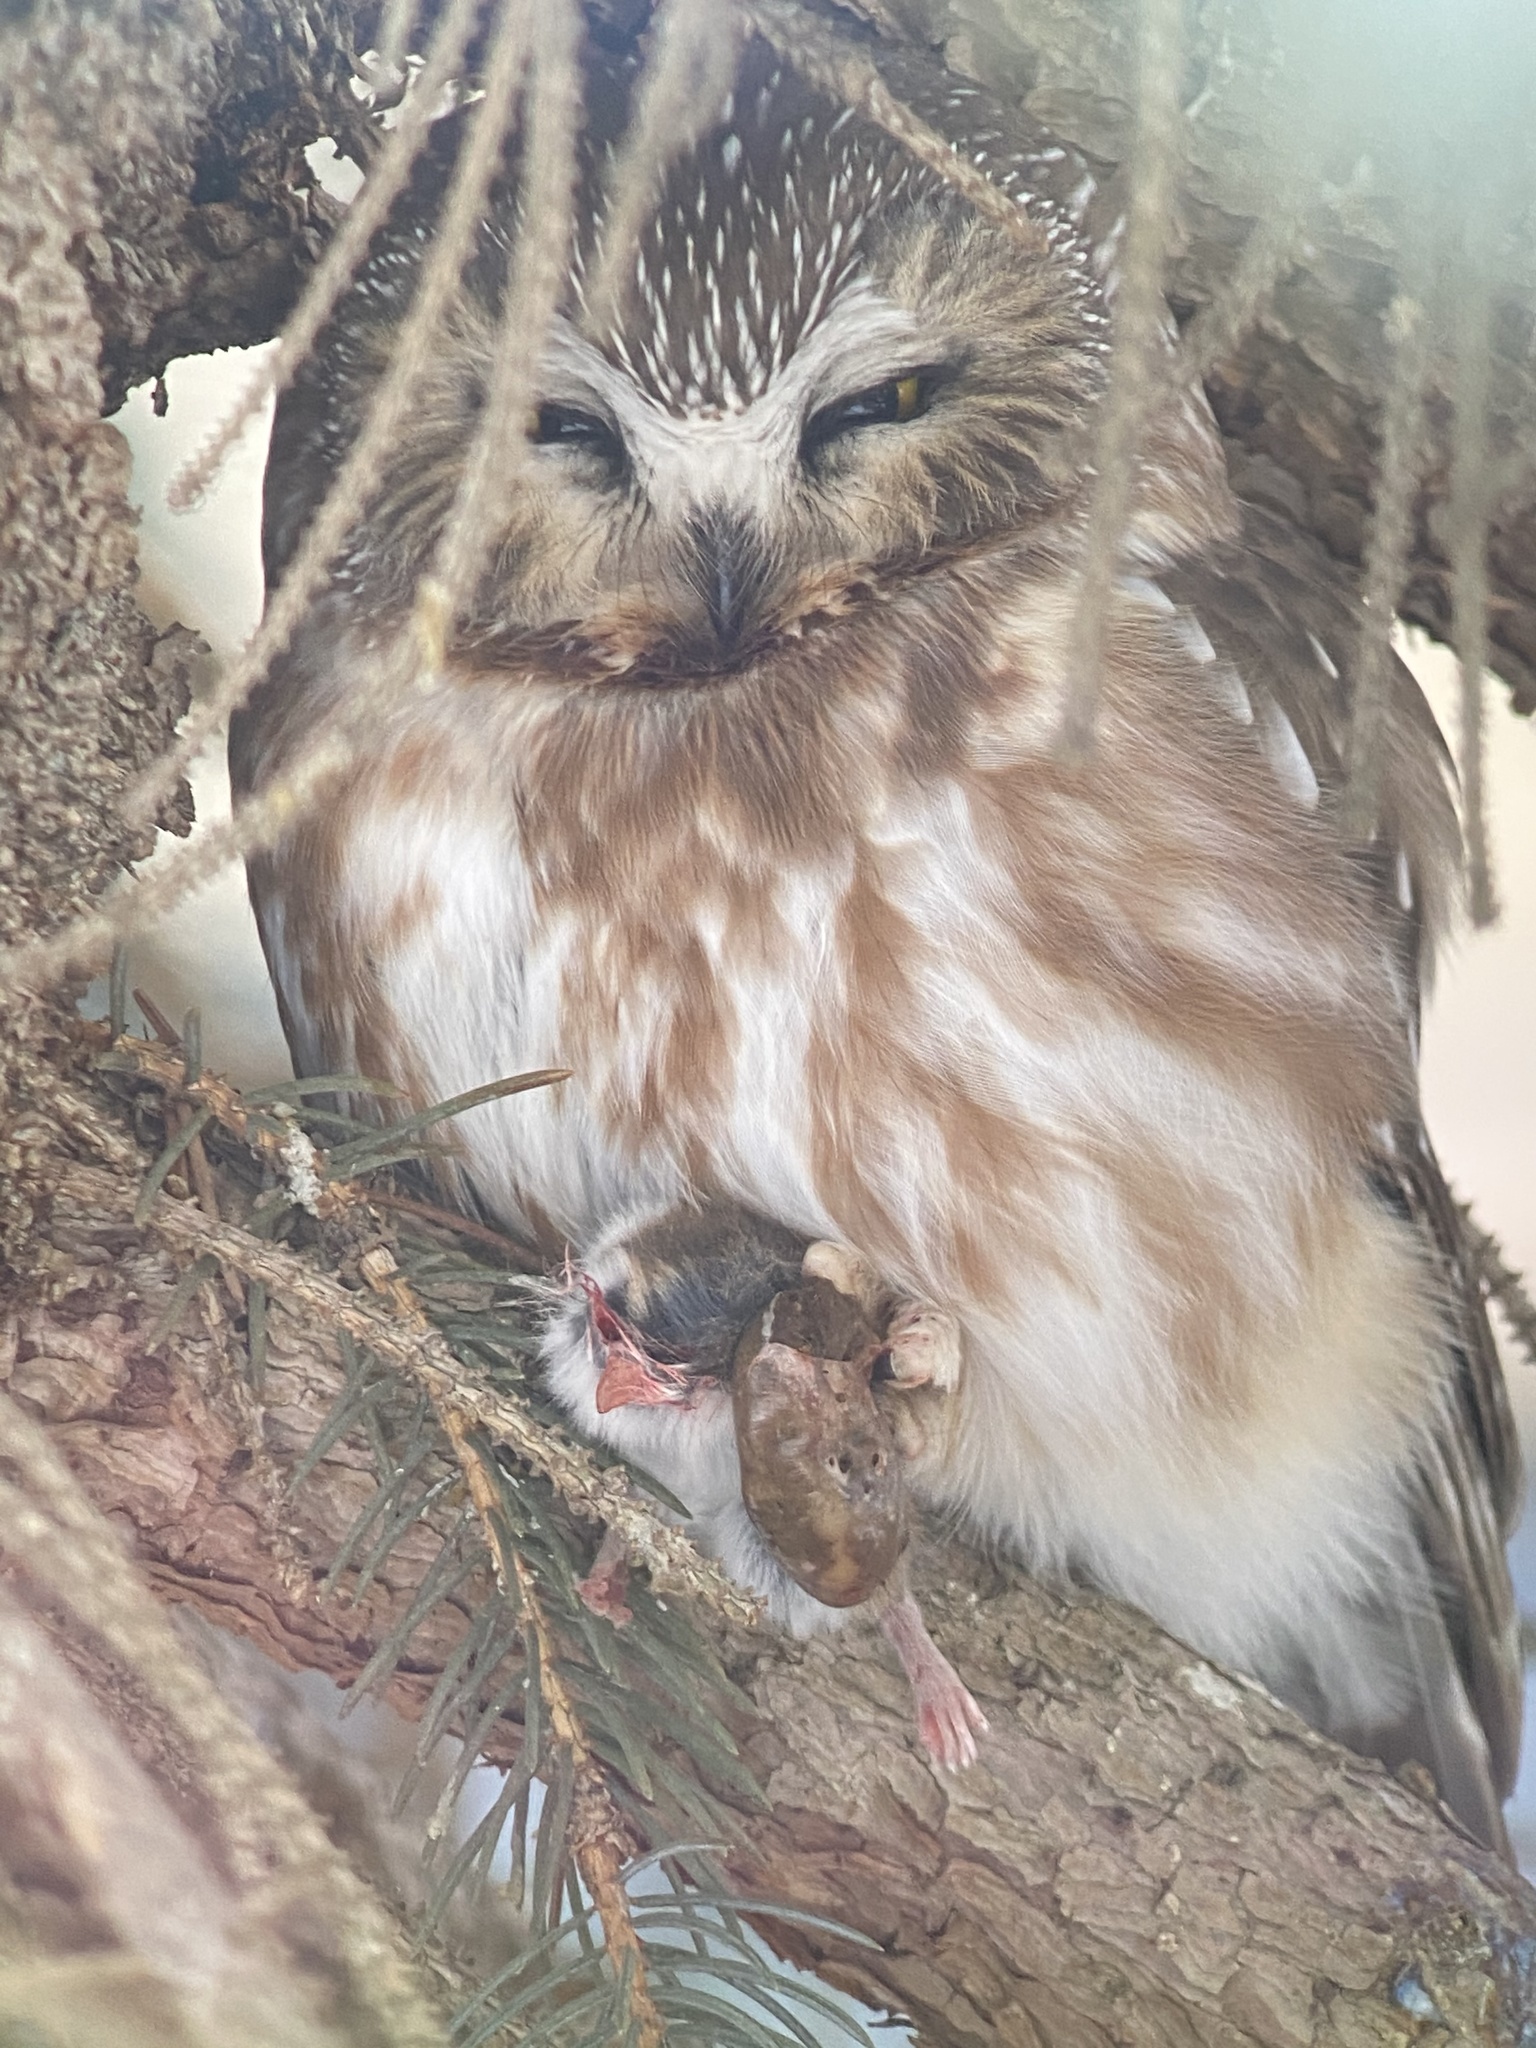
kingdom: Animalia
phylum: Chordata
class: Aves
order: Strigiformes
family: Strigidae
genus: Aegolius
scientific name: Aegolius acadicus
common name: Northern saw-whet owl
